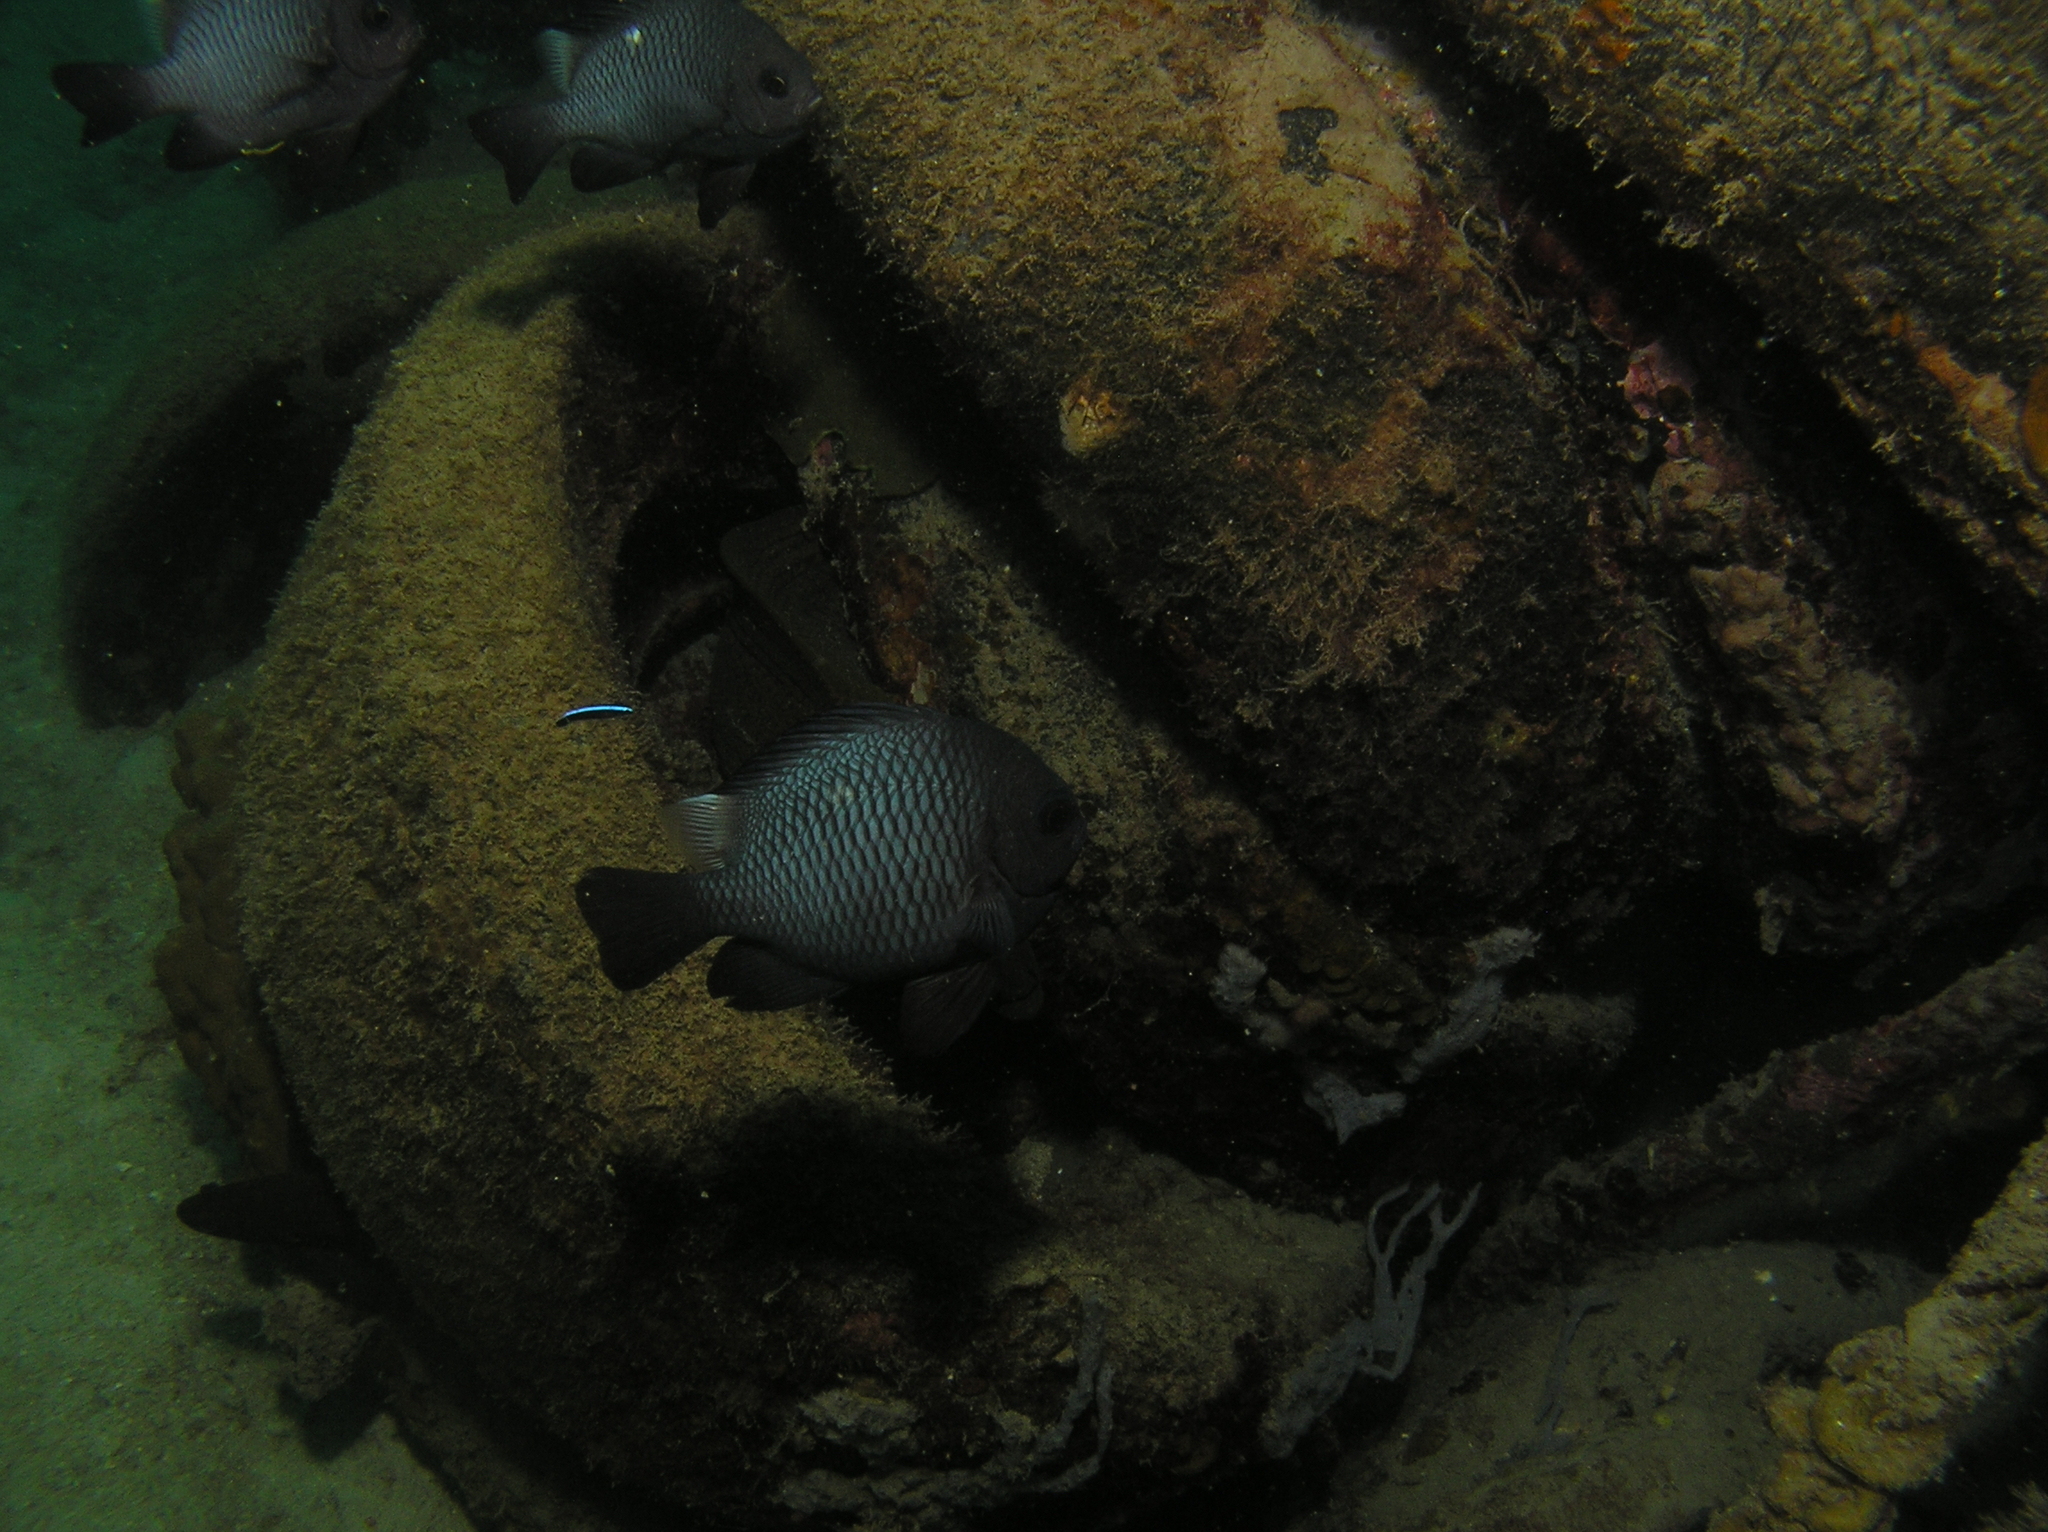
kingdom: Animalia
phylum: Chordata
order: Perciformes
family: Pomacentridae
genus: Dascyllus
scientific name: Dascyllus trimaculatus
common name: Threespot dascyllus
